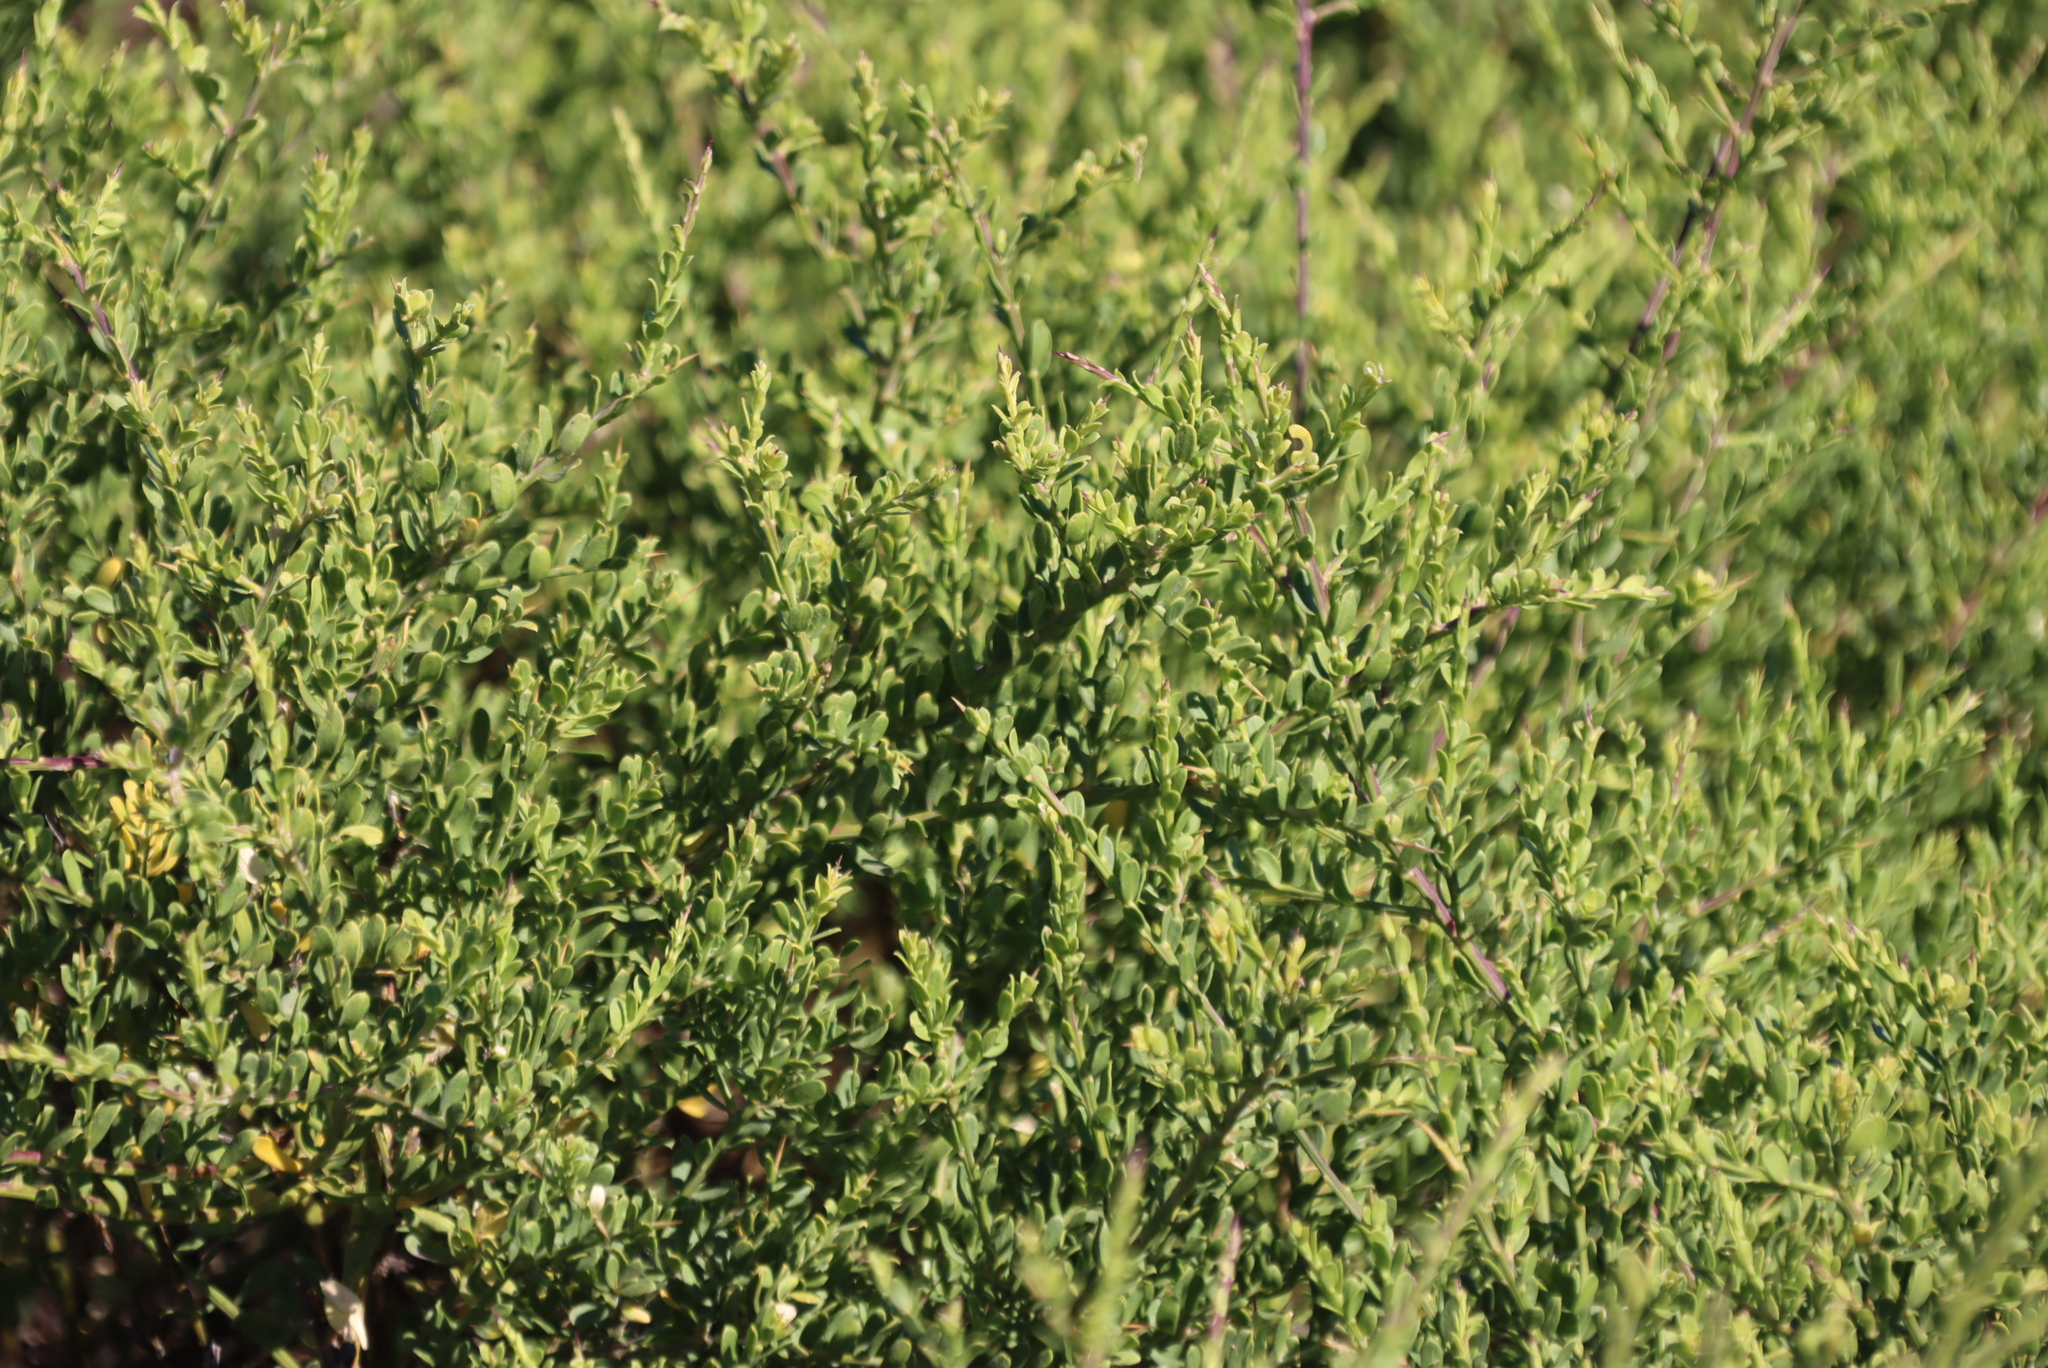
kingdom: Plantae
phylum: Tracheophyta
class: Magnoliopsida
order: Fabales
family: Polygalaceae
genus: Muraltia
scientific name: Muraltia spinosa
